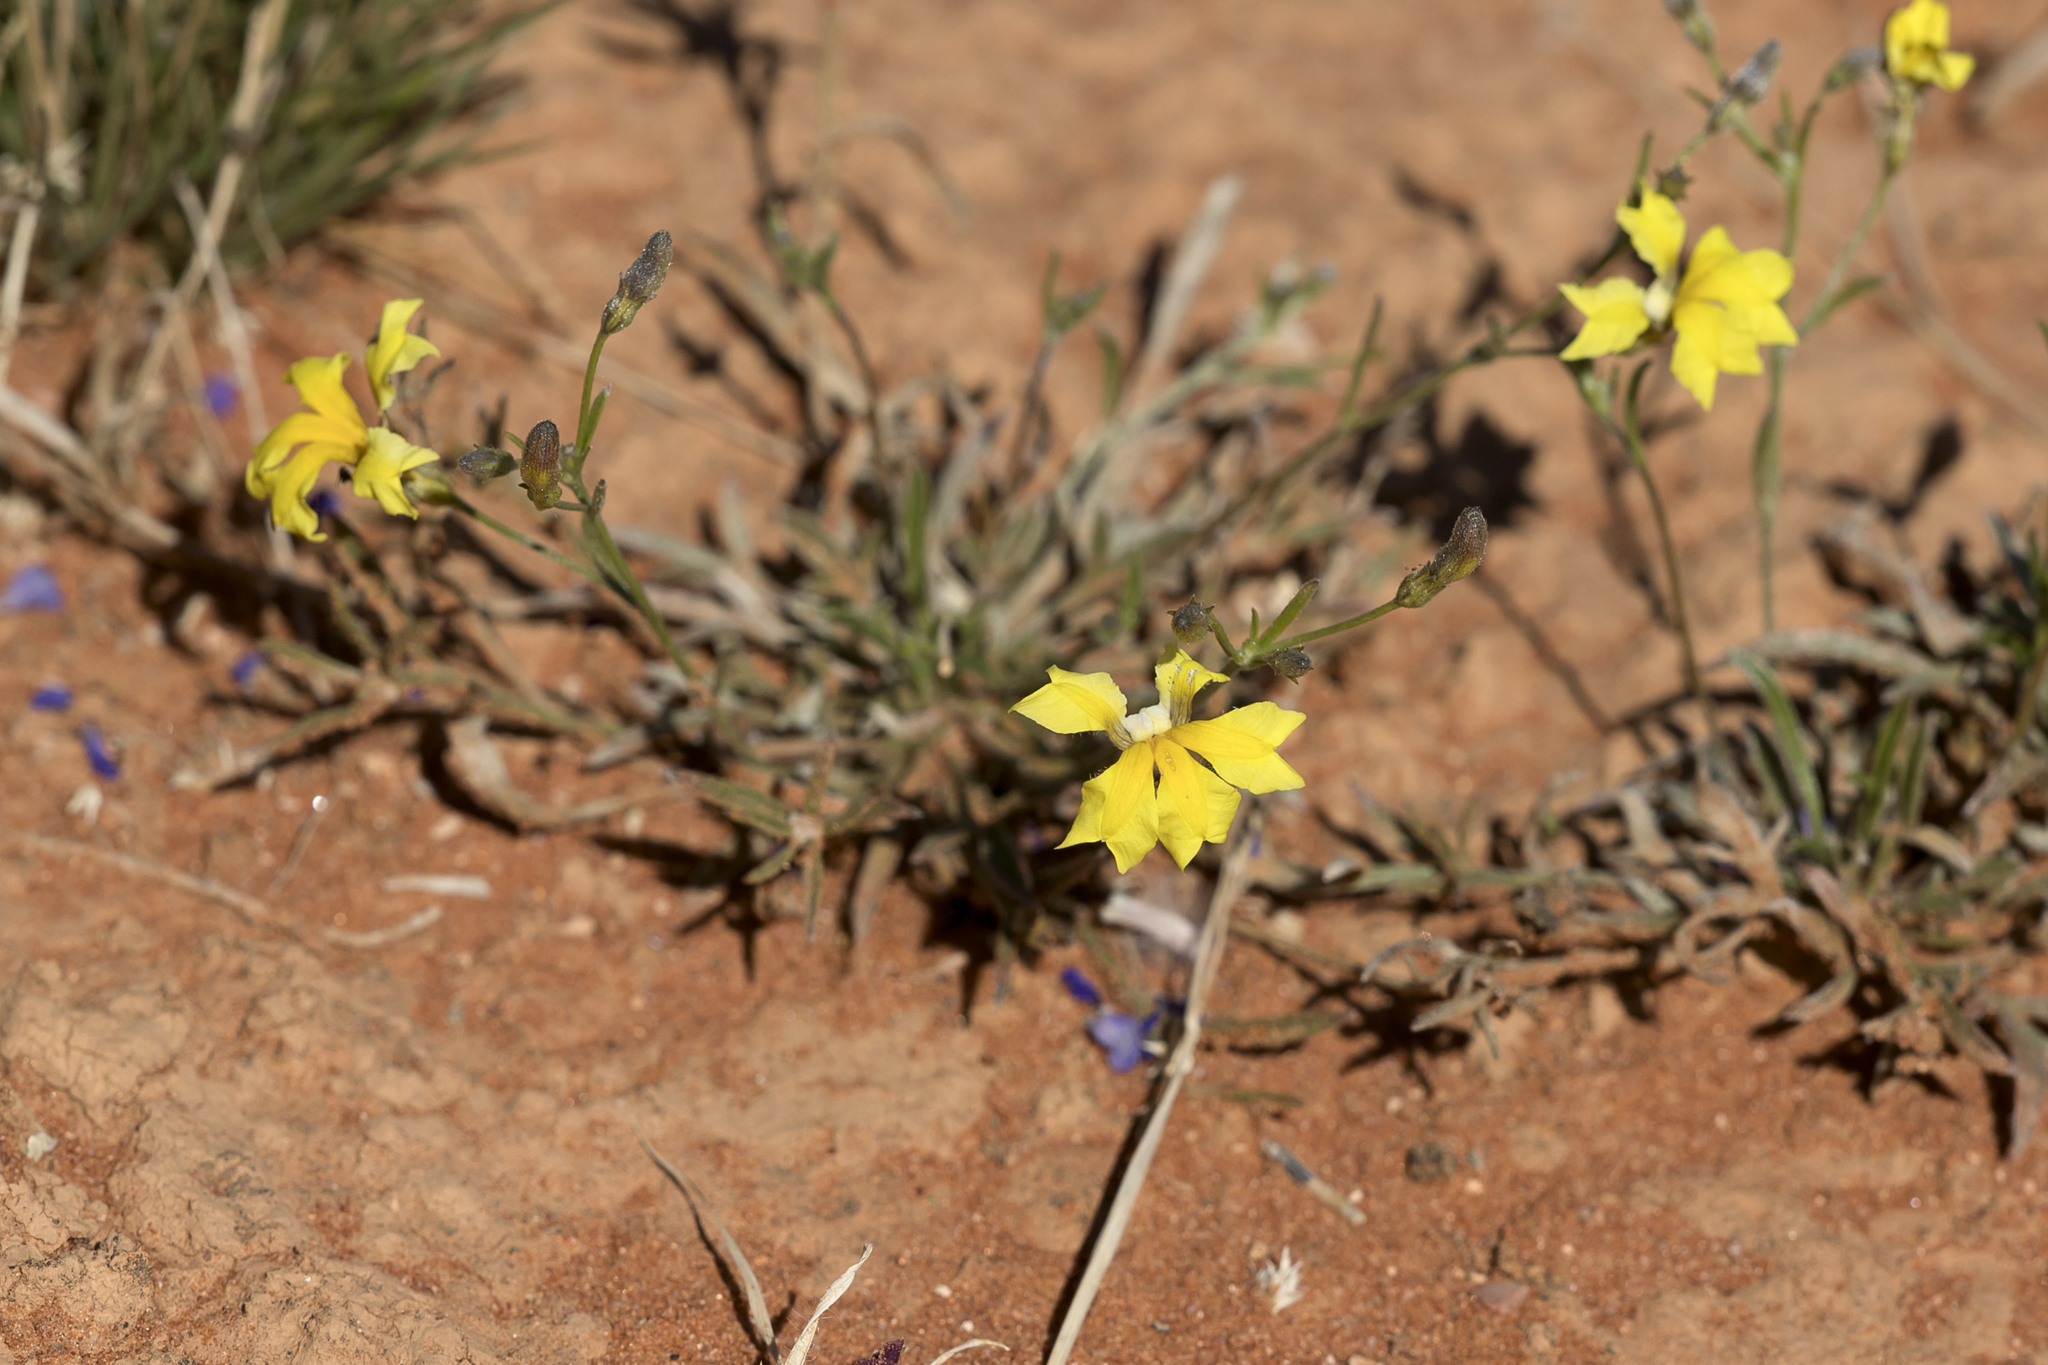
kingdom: Plantae
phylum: Tracheophyta
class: Magnoliopsida
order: Asterales
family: Goodeniaceae
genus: Goodenia
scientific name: Goodenia fascicularis
